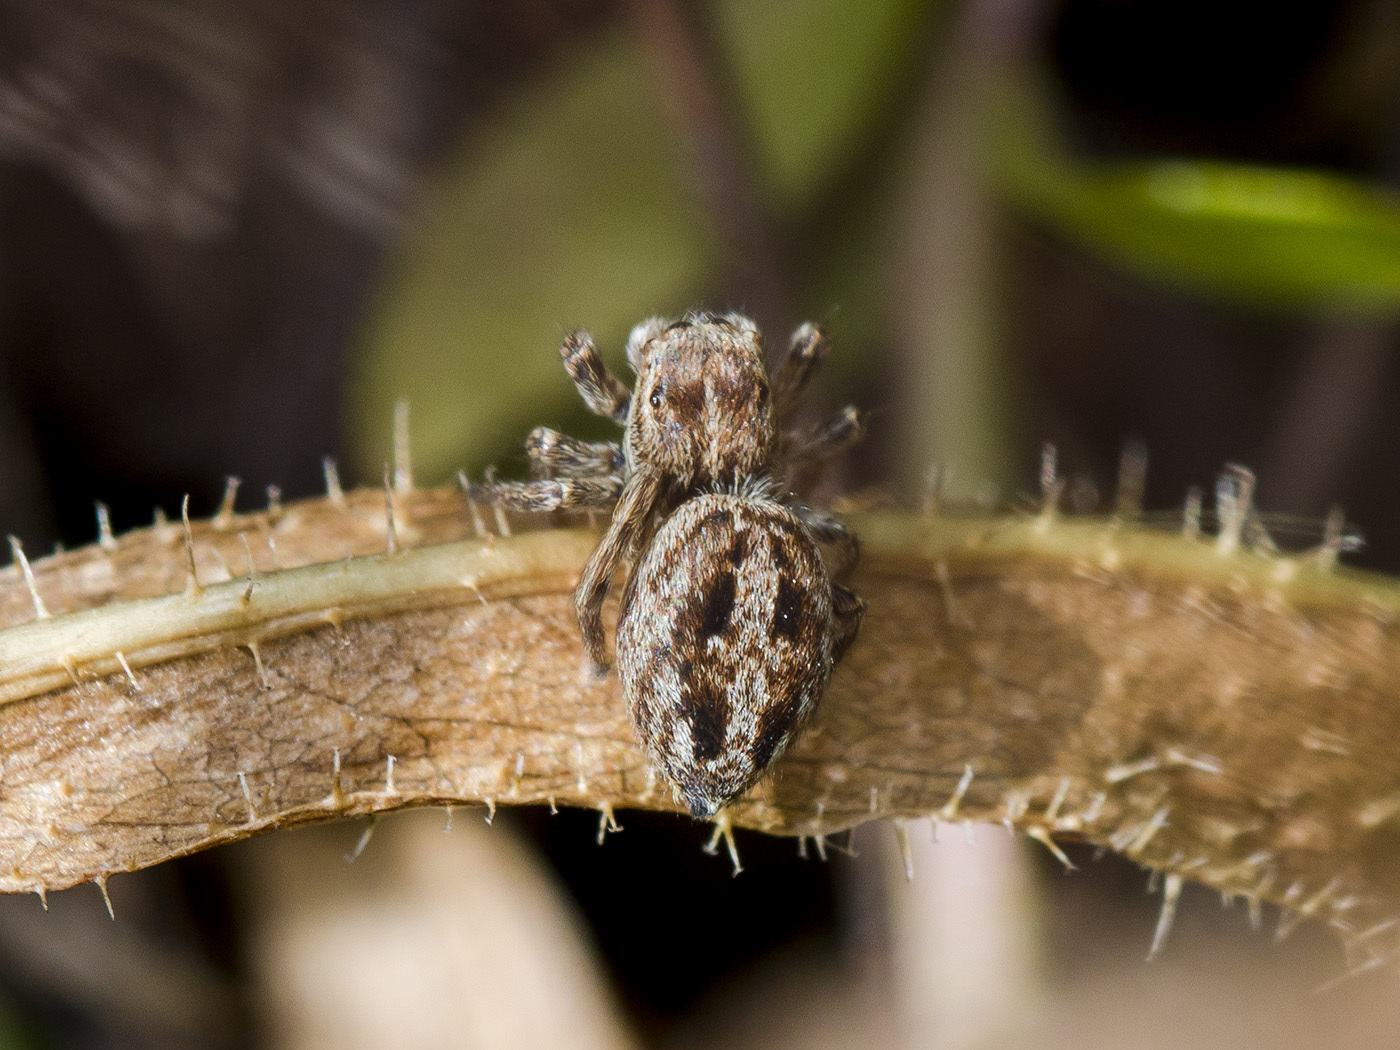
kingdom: Animalia
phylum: Arthropoda
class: Arachnida
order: Araneae
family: Salticidae
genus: Attulus
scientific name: Attulus talgarensis
